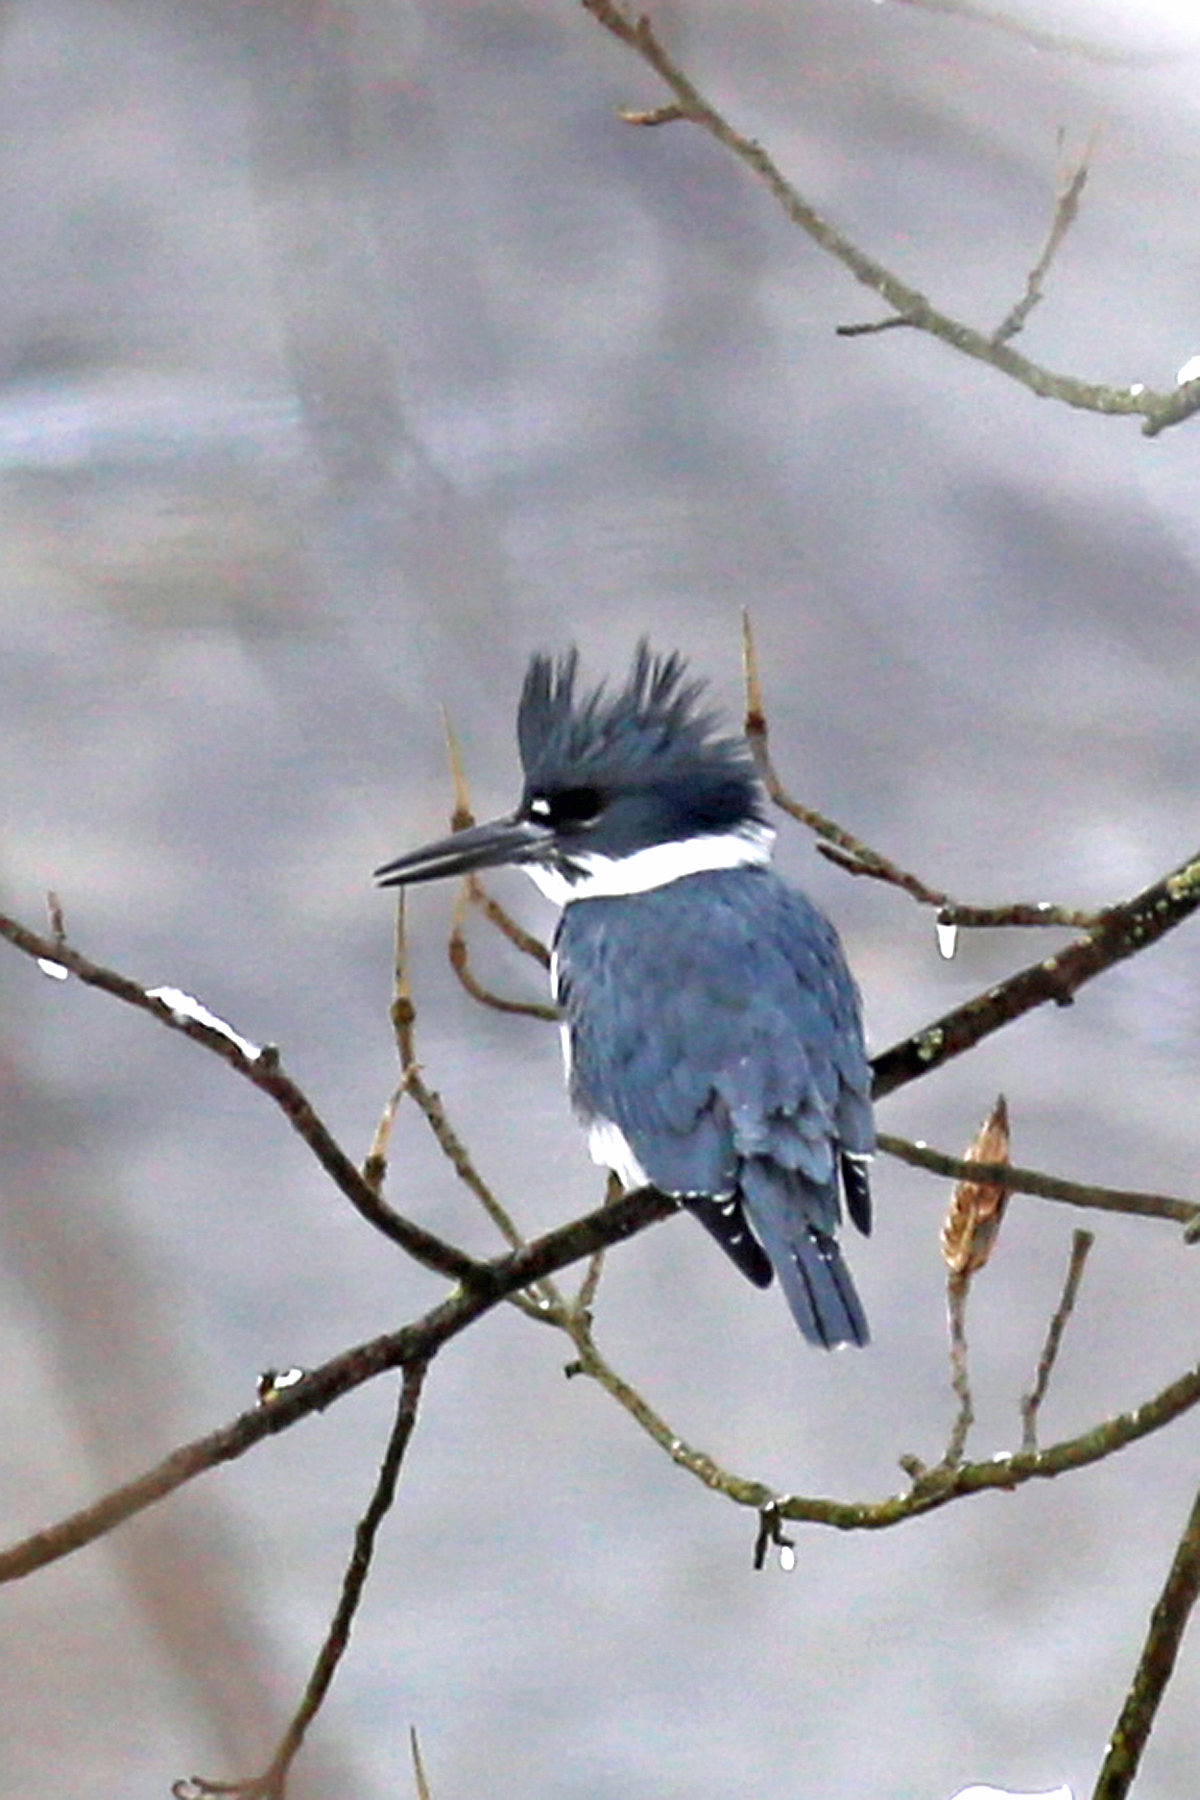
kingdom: Animalia
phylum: Chordata
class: Aves
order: Coraciiformes
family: Alcedinidae
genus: Megaceryle
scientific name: Megaceryle alcyon
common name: Belted kingfisher
